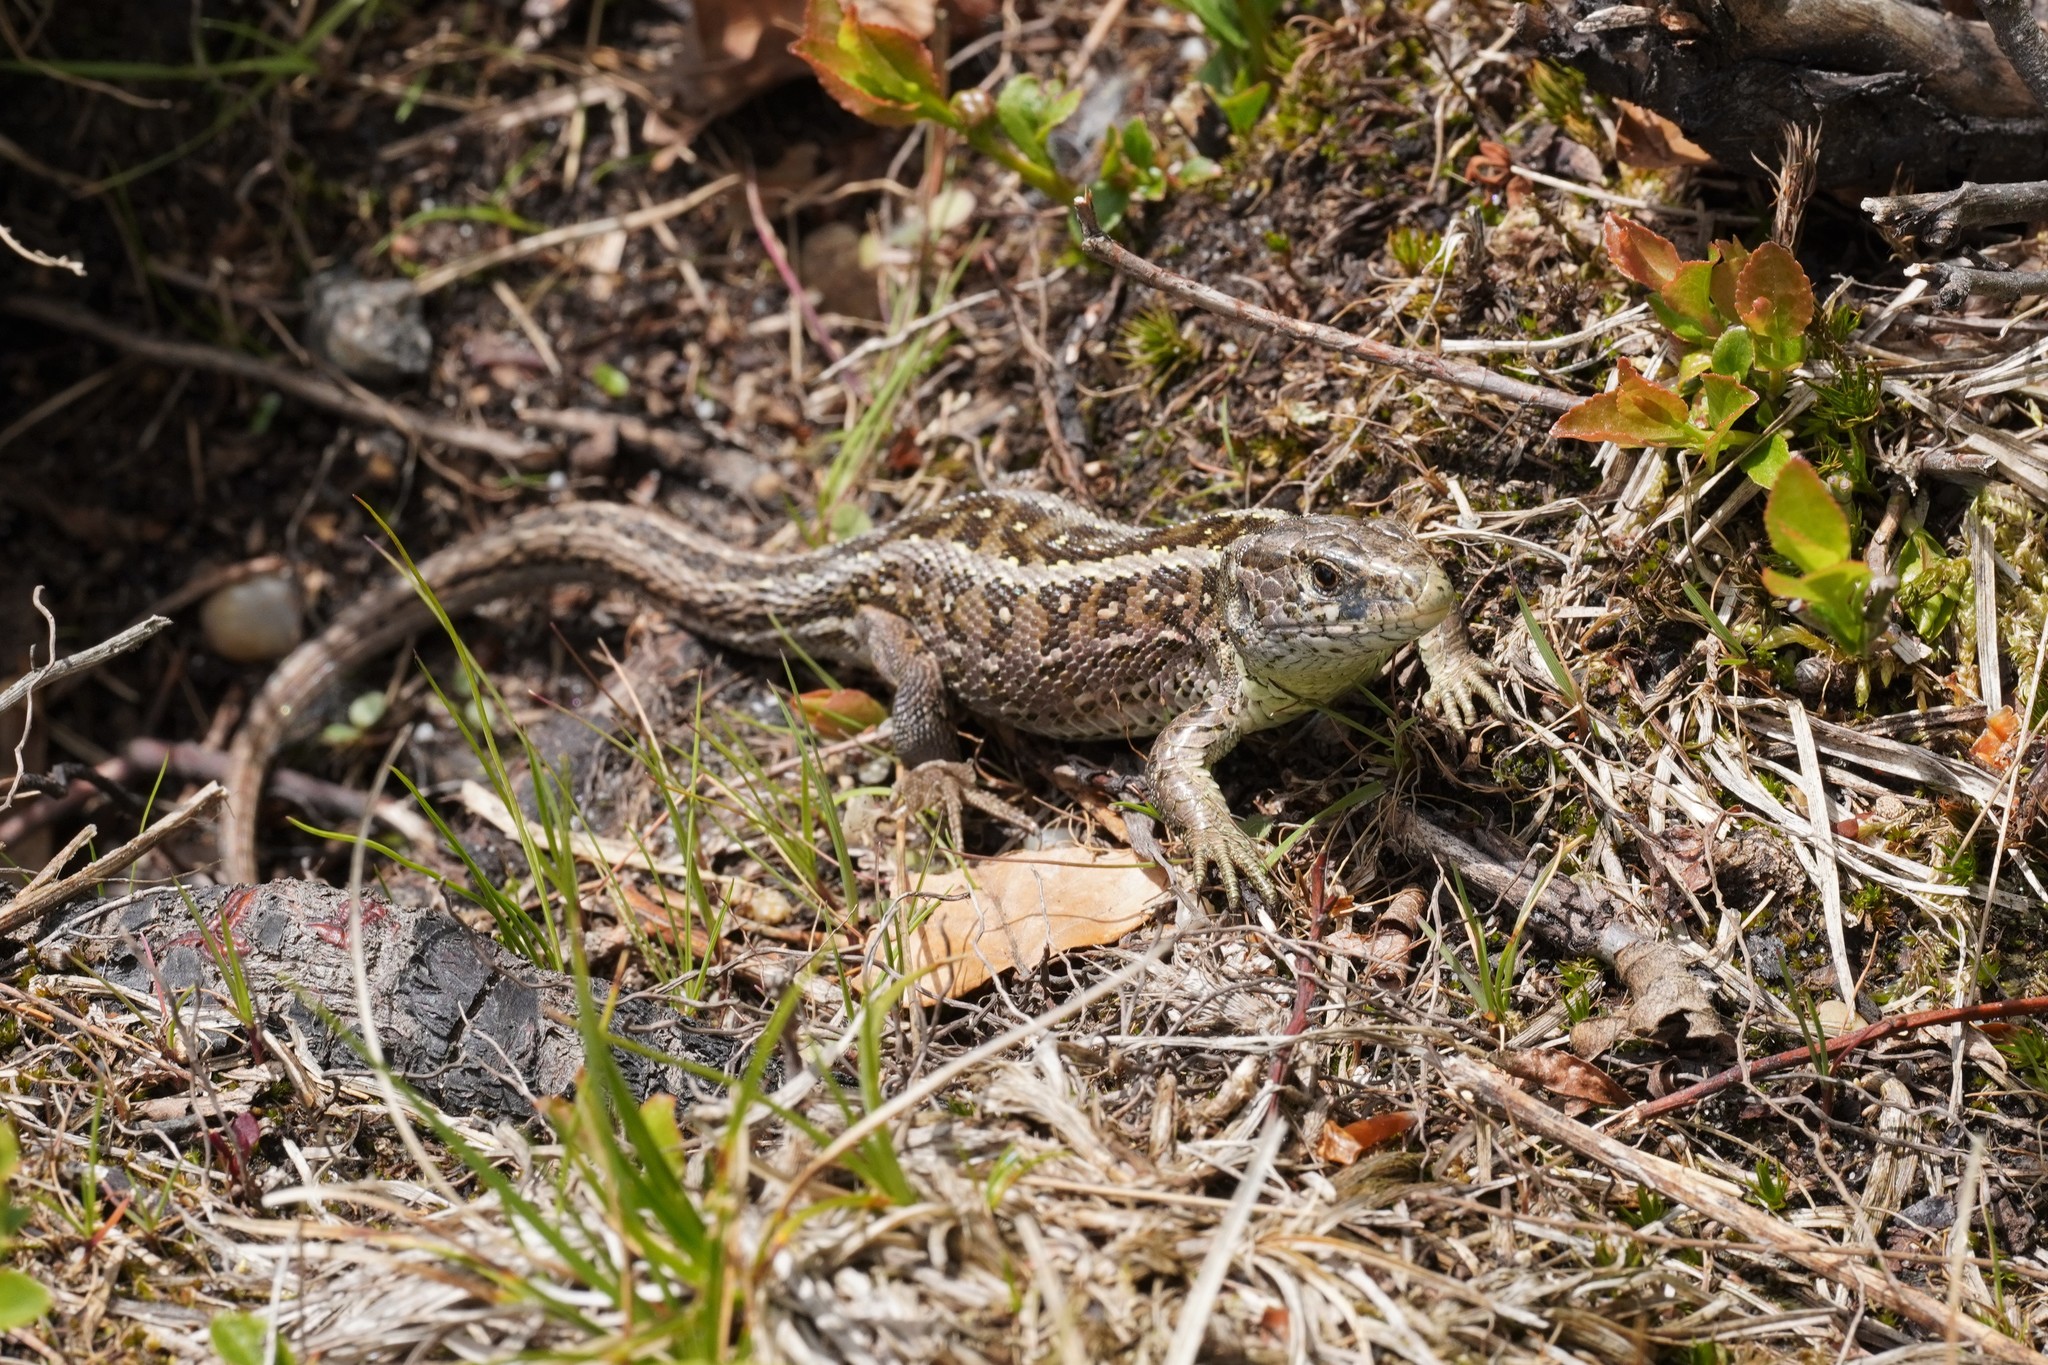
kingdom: Animalia
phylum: Chordata
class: Squamata
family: Lacertidae
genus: Lacerta
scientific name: Lacerta agilis
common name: Sand lizard
